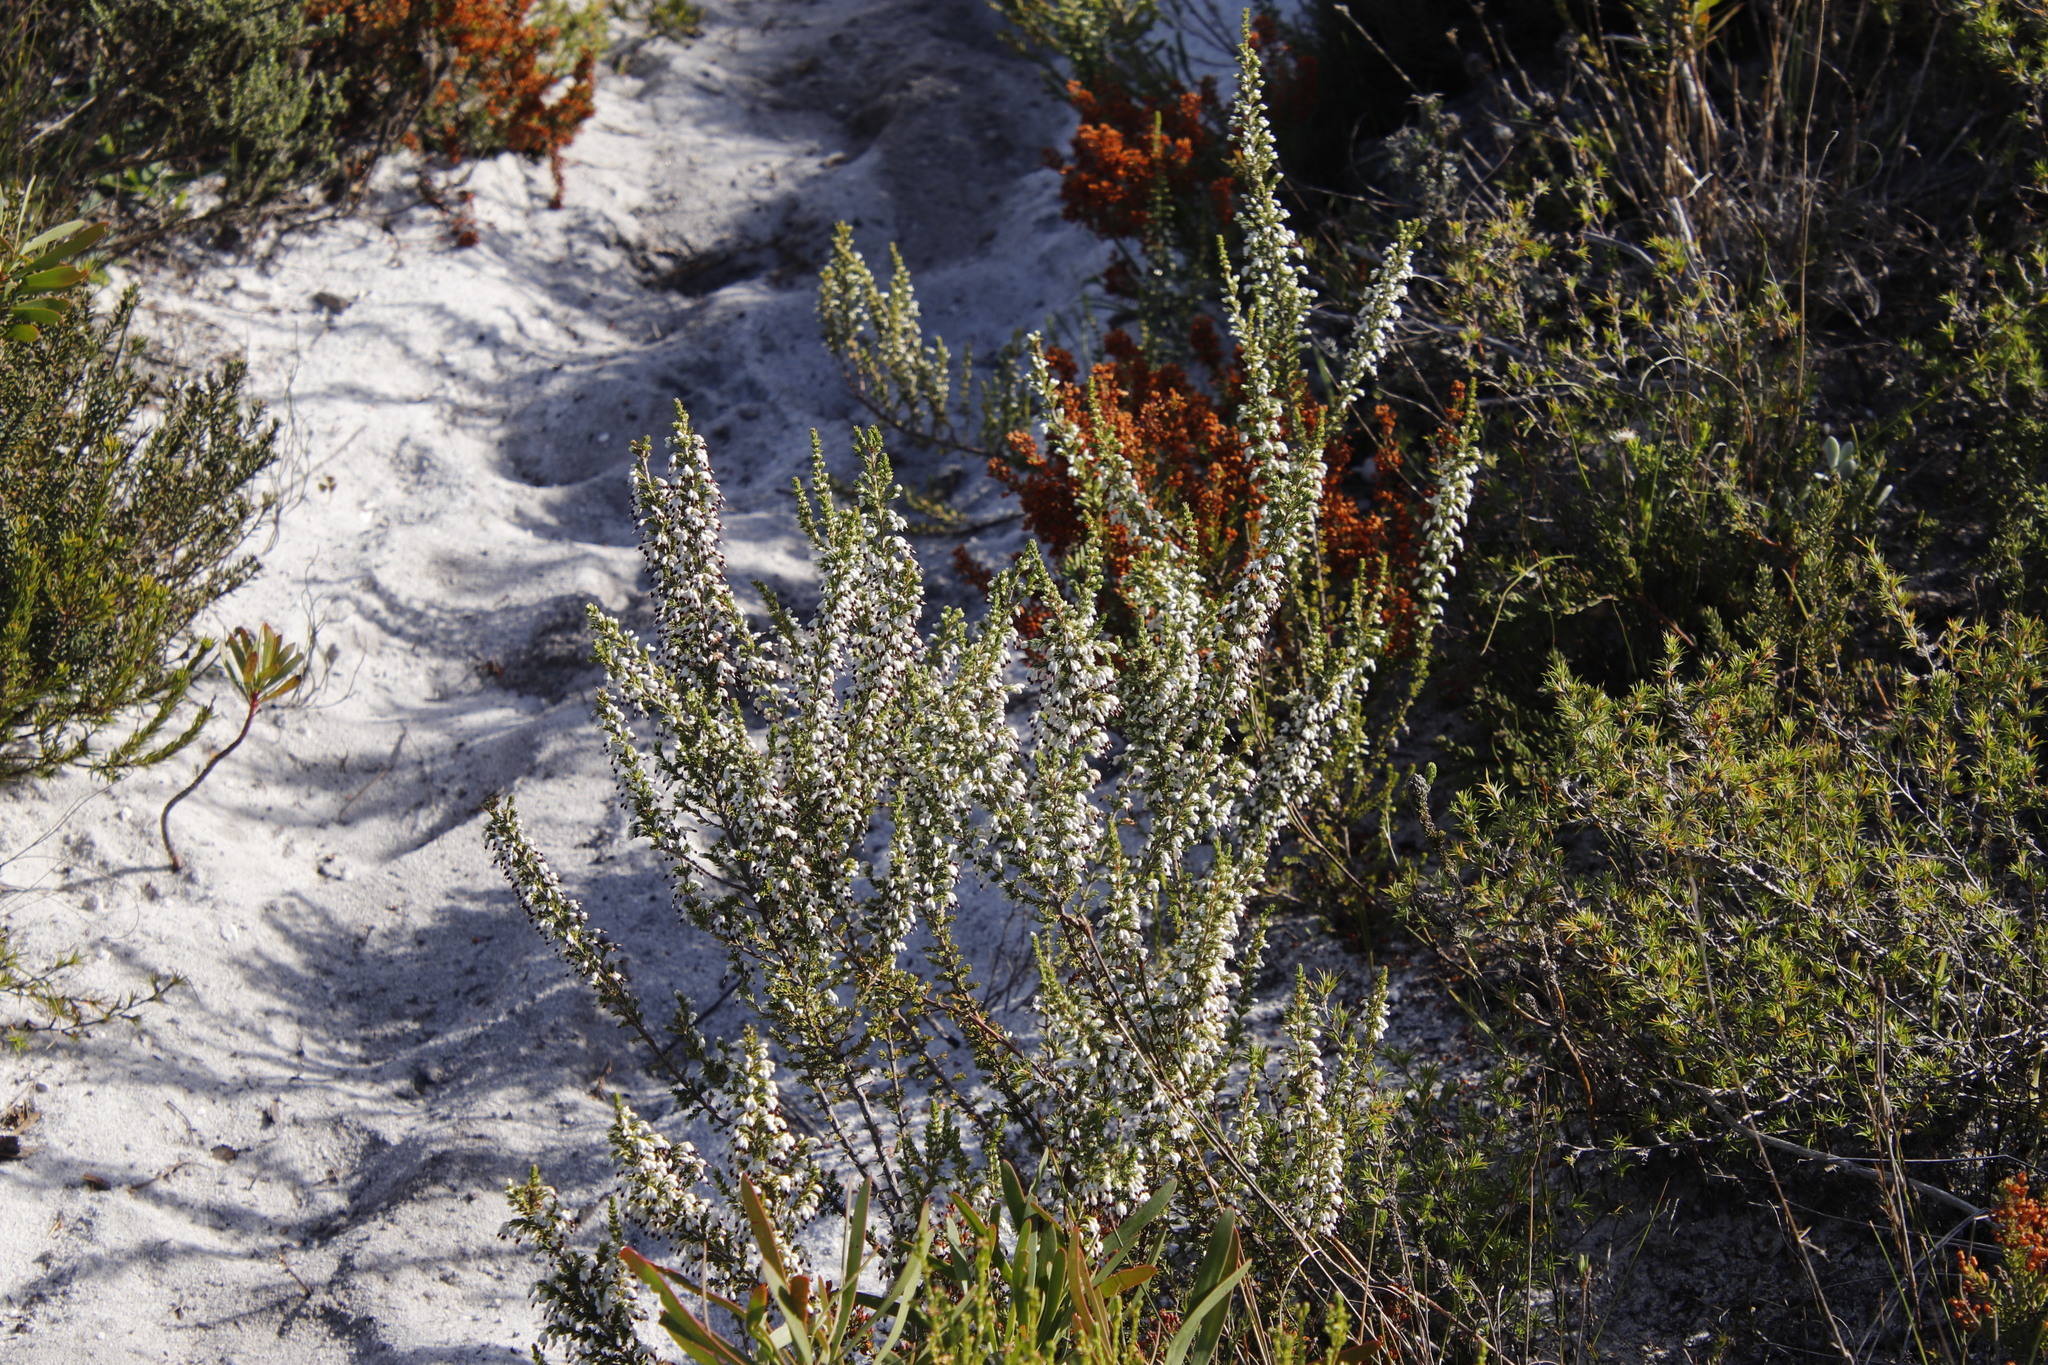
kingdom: Plantae
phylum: Tracheophyta
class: Magnoliopsida
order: Ericales
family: Ericaceae
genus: Erica
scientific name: Erica imbricata
